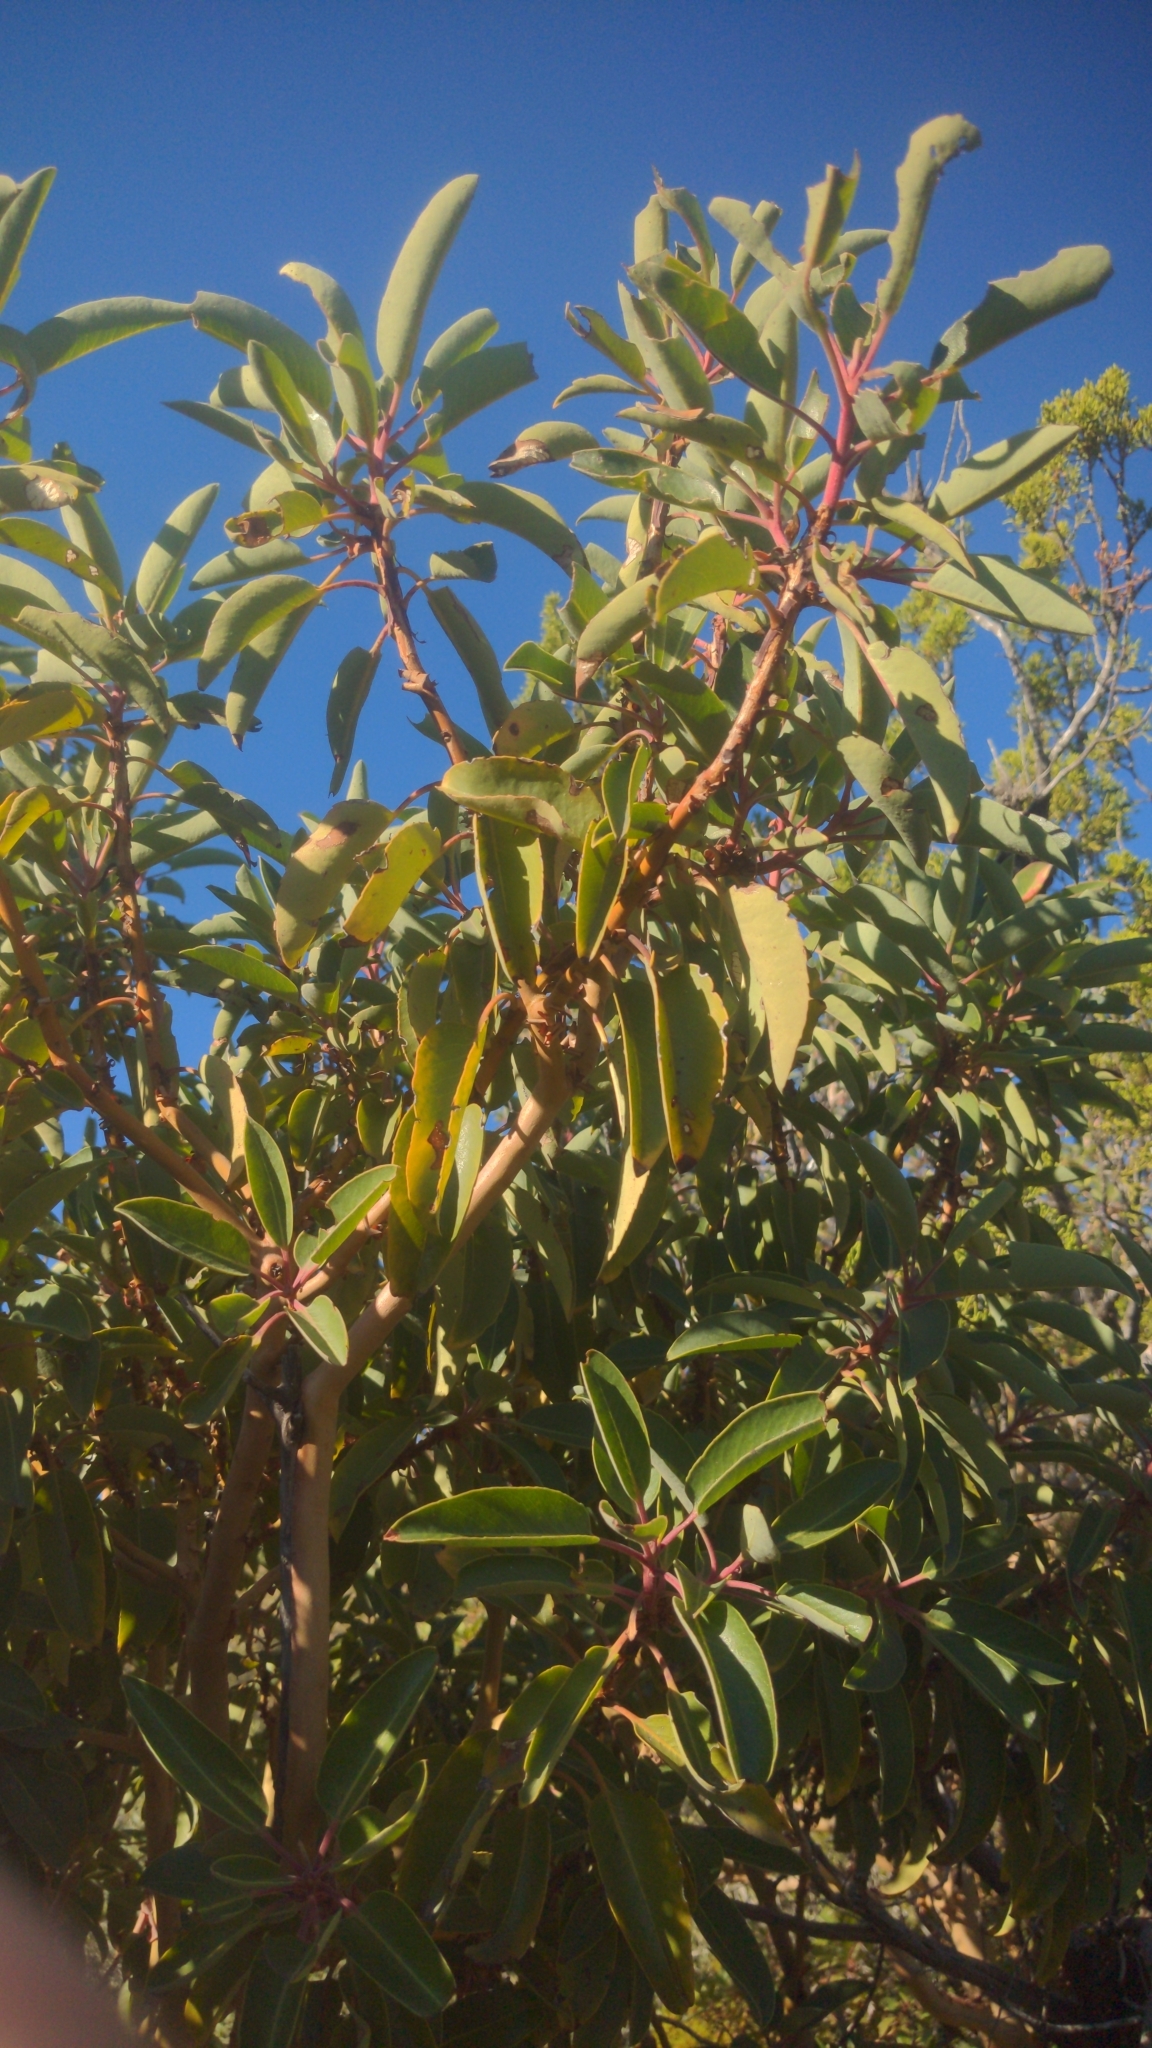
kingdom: Plantae
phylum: Tracheophyta
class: Magnoliopsida
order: Ericales
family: Ericaceae
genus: Arbutus
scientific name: Arbutus xalapensis
